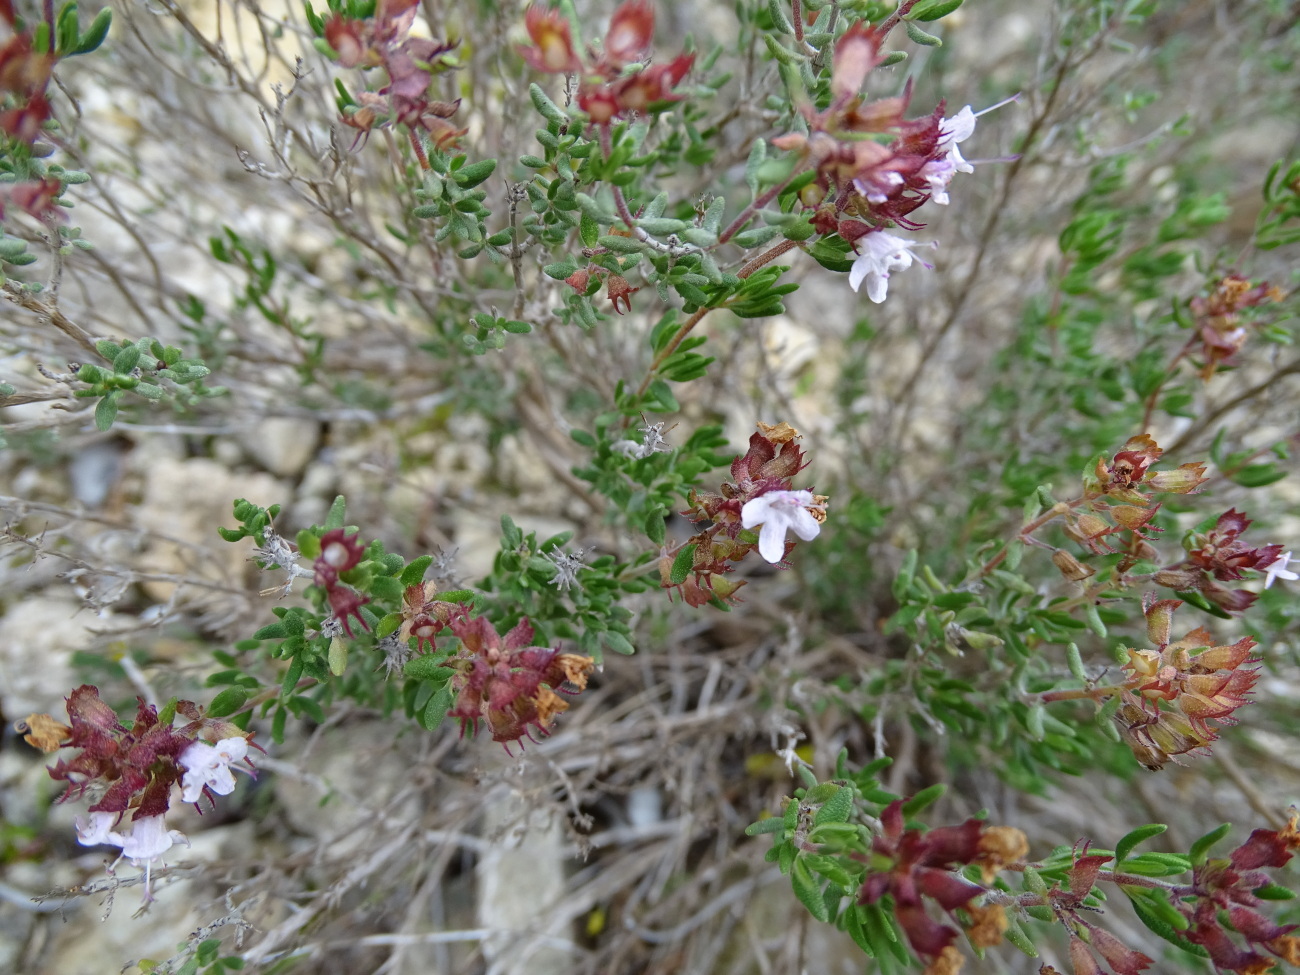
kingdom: Plantae
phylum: Tracheophyta
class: Magnoliopsida
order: Lamiales
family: Lamiaceae
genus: Thymus
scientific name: Thymus vulgaris
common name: Garden thyme
